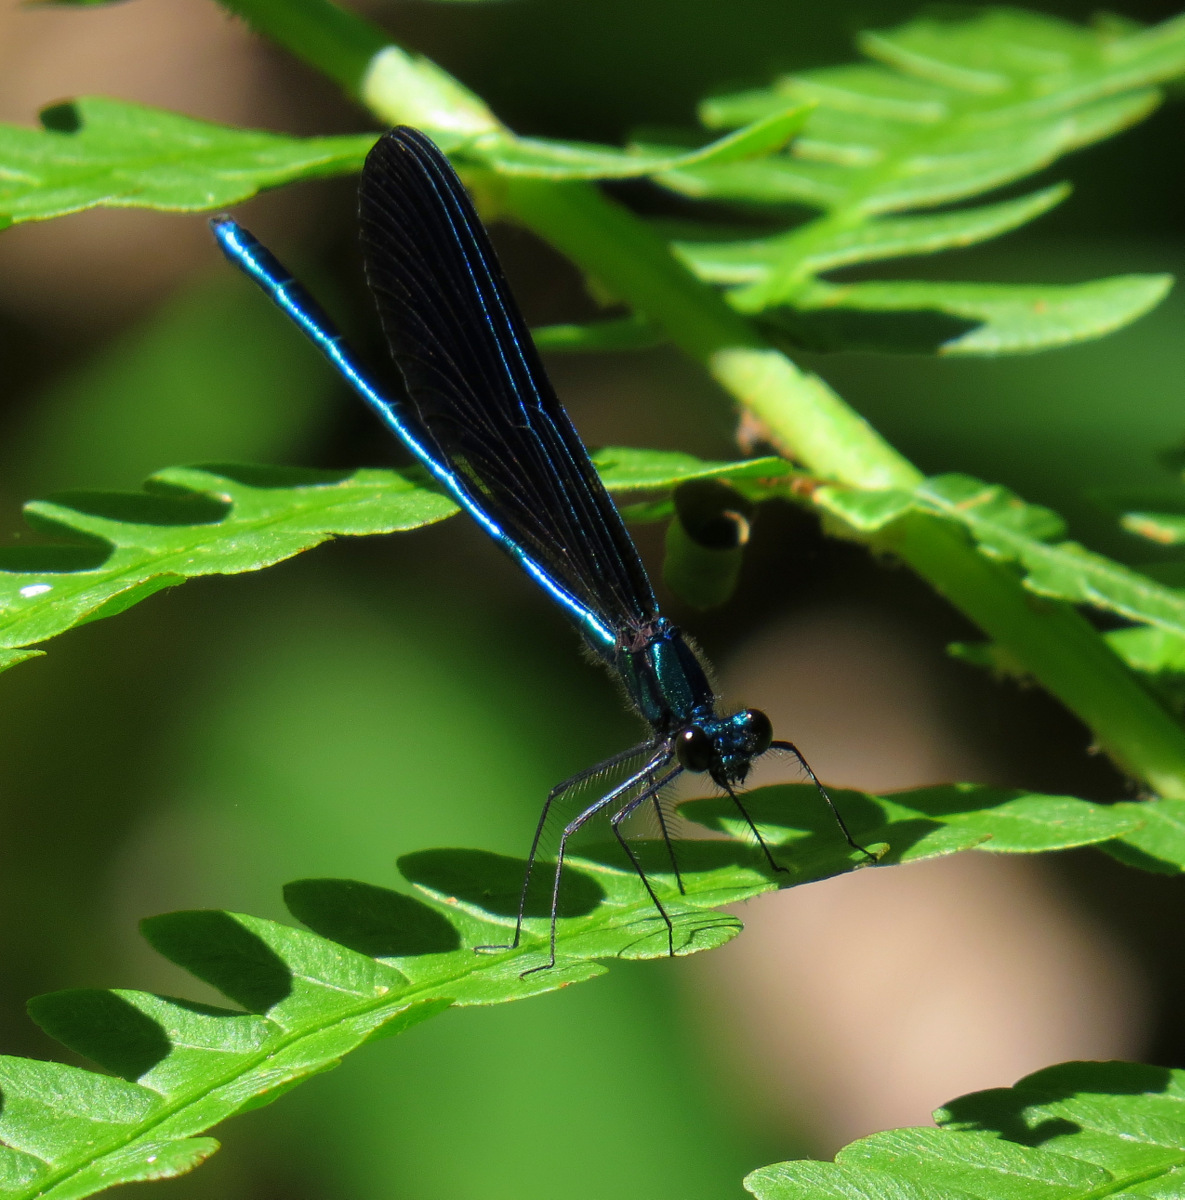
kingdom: Animalia
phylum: Arthropoda
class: Insecta
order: Odonata
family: Calopterygidae
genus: Calopteryx
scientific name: Calopteryx maculata
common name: Ebony jewelwing
